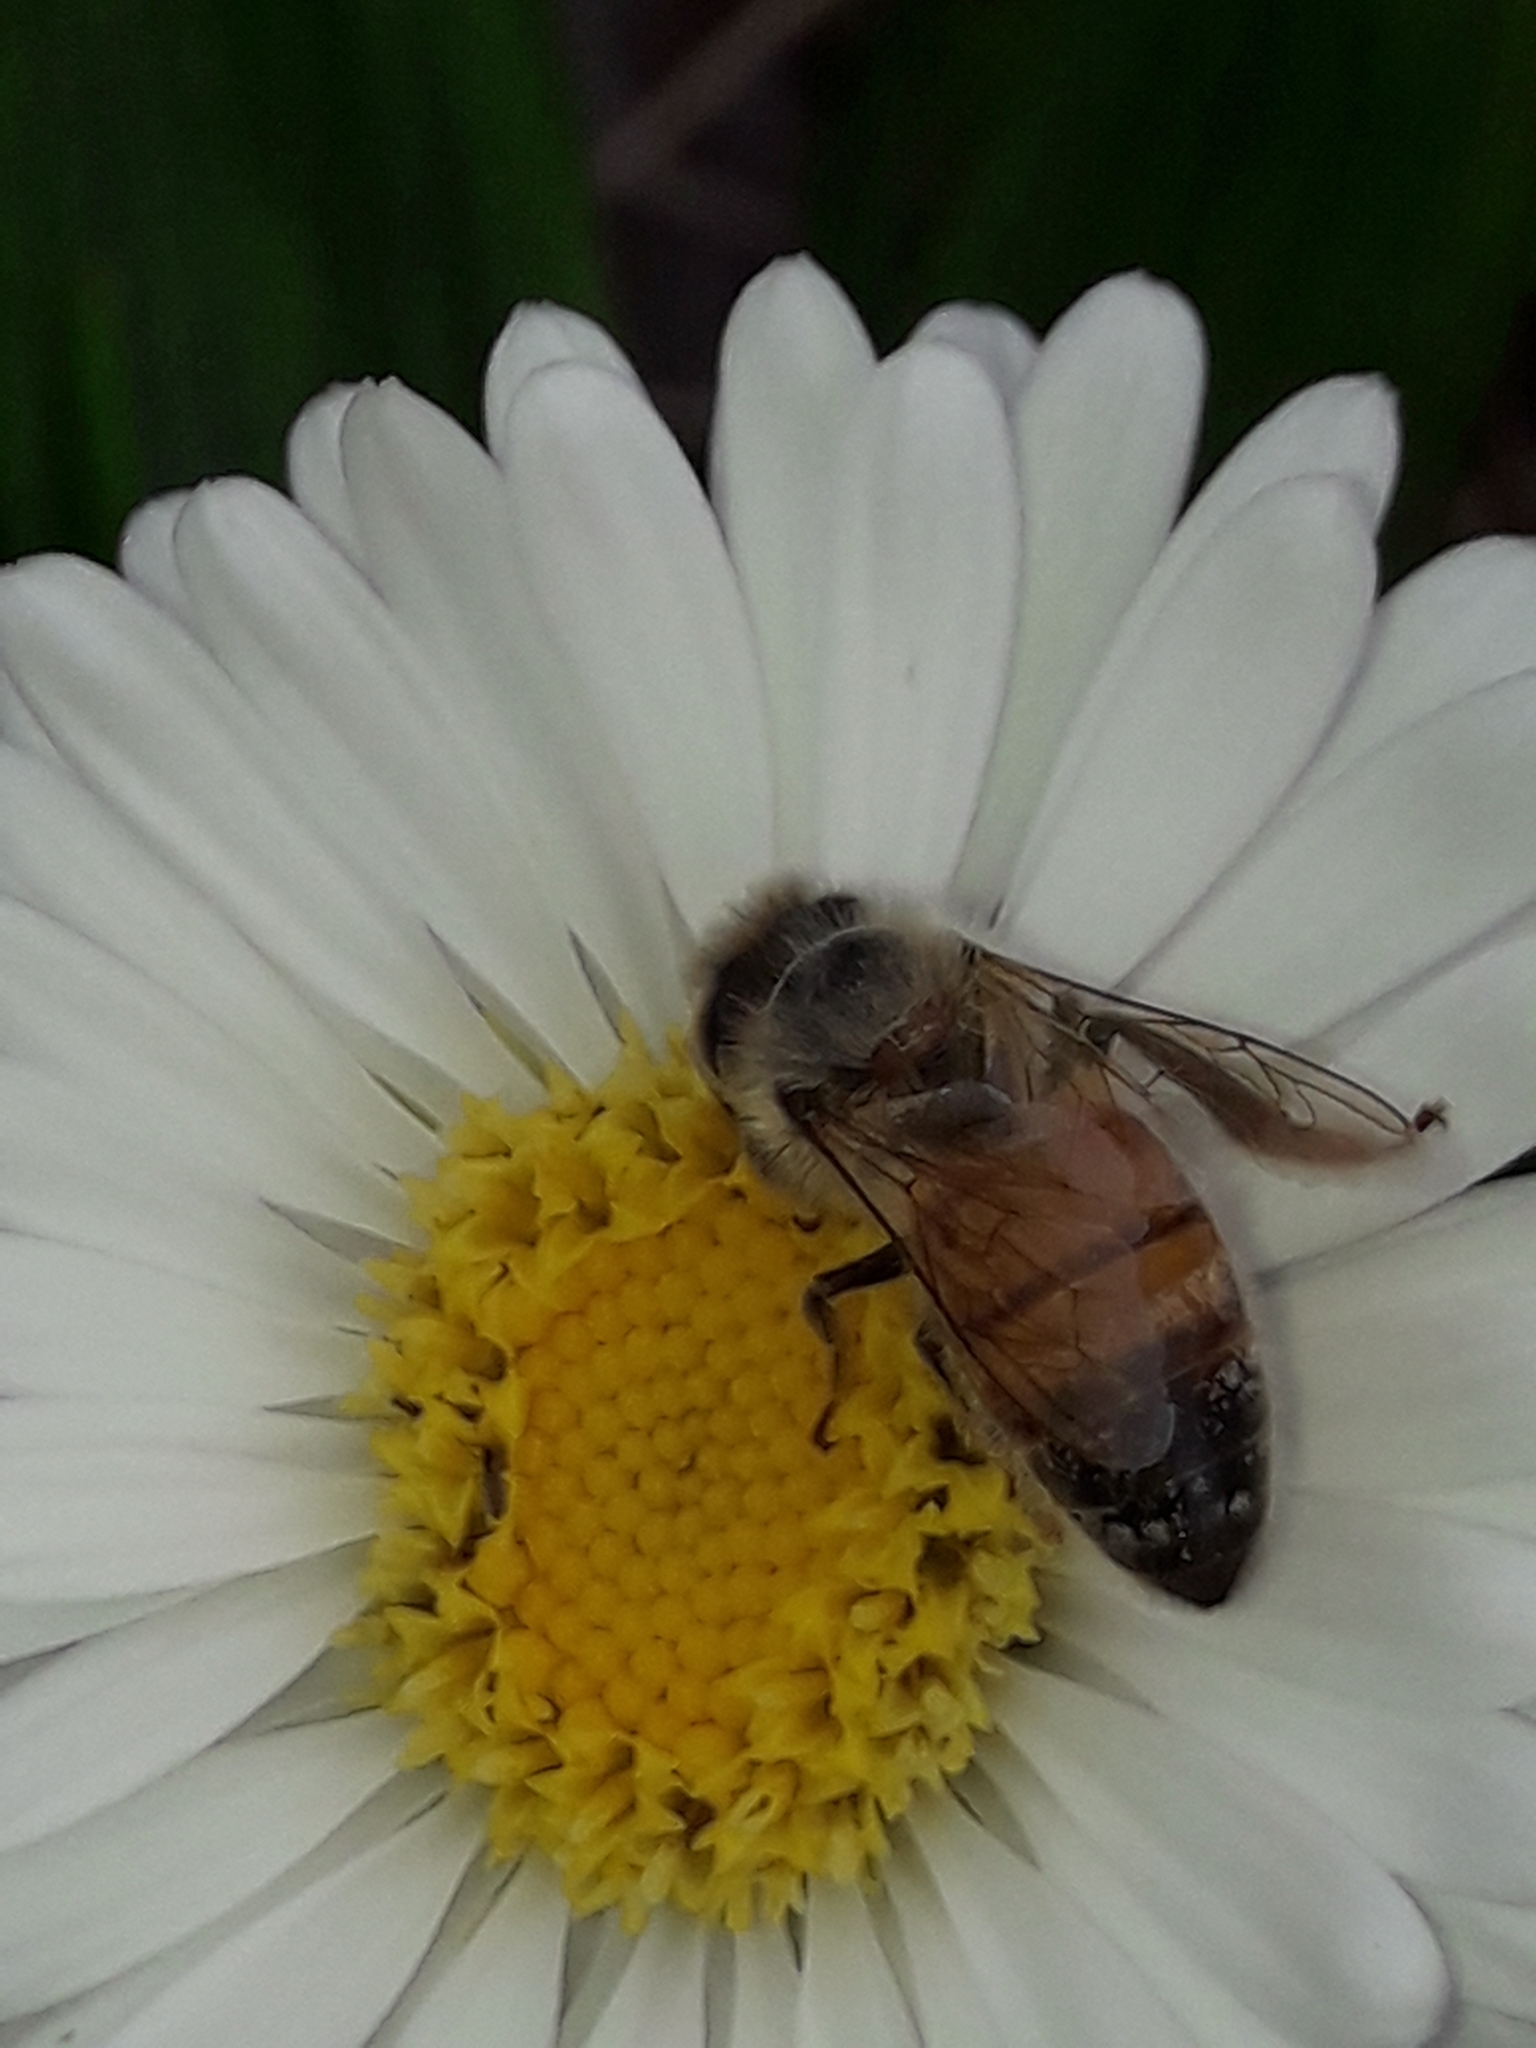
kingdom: Animalia
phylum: Arthropoda
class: Insecta
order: Hymenoptera
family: Apidae
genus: Apis
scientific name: Apis mellifera
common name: Honey bee
